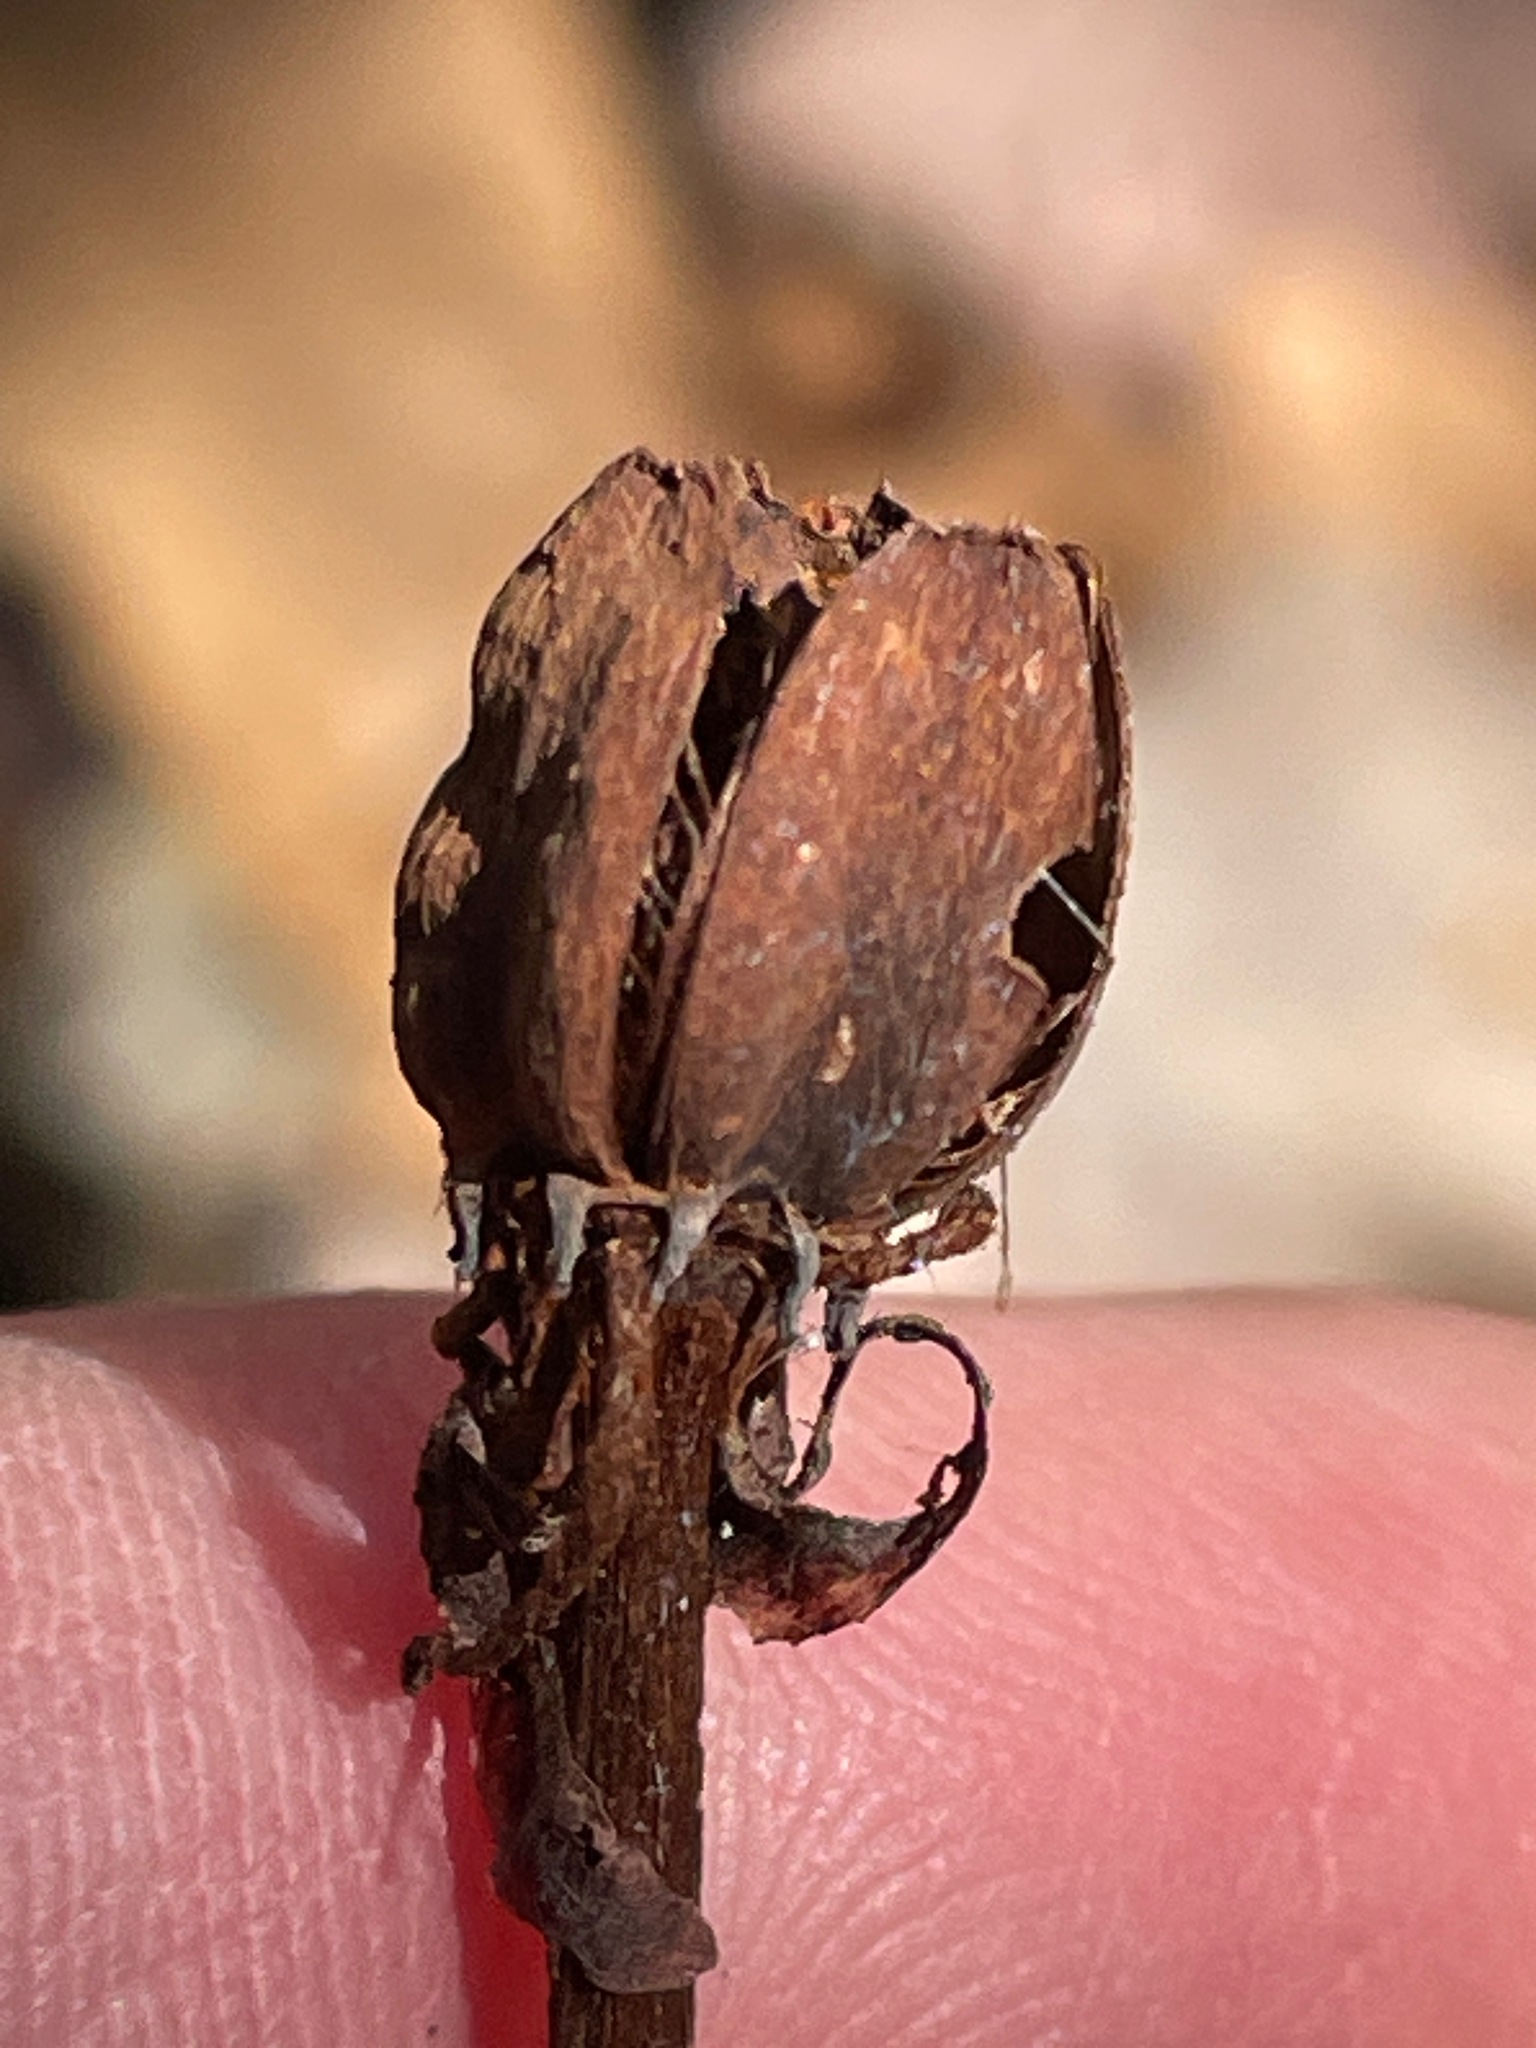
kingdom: Plantae
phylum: Tracheophyta
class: Magnoliopsida
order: Ericales
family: Ericaceae
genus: Monotropa
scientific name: Monotropa uniflora
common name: Convulsion root
